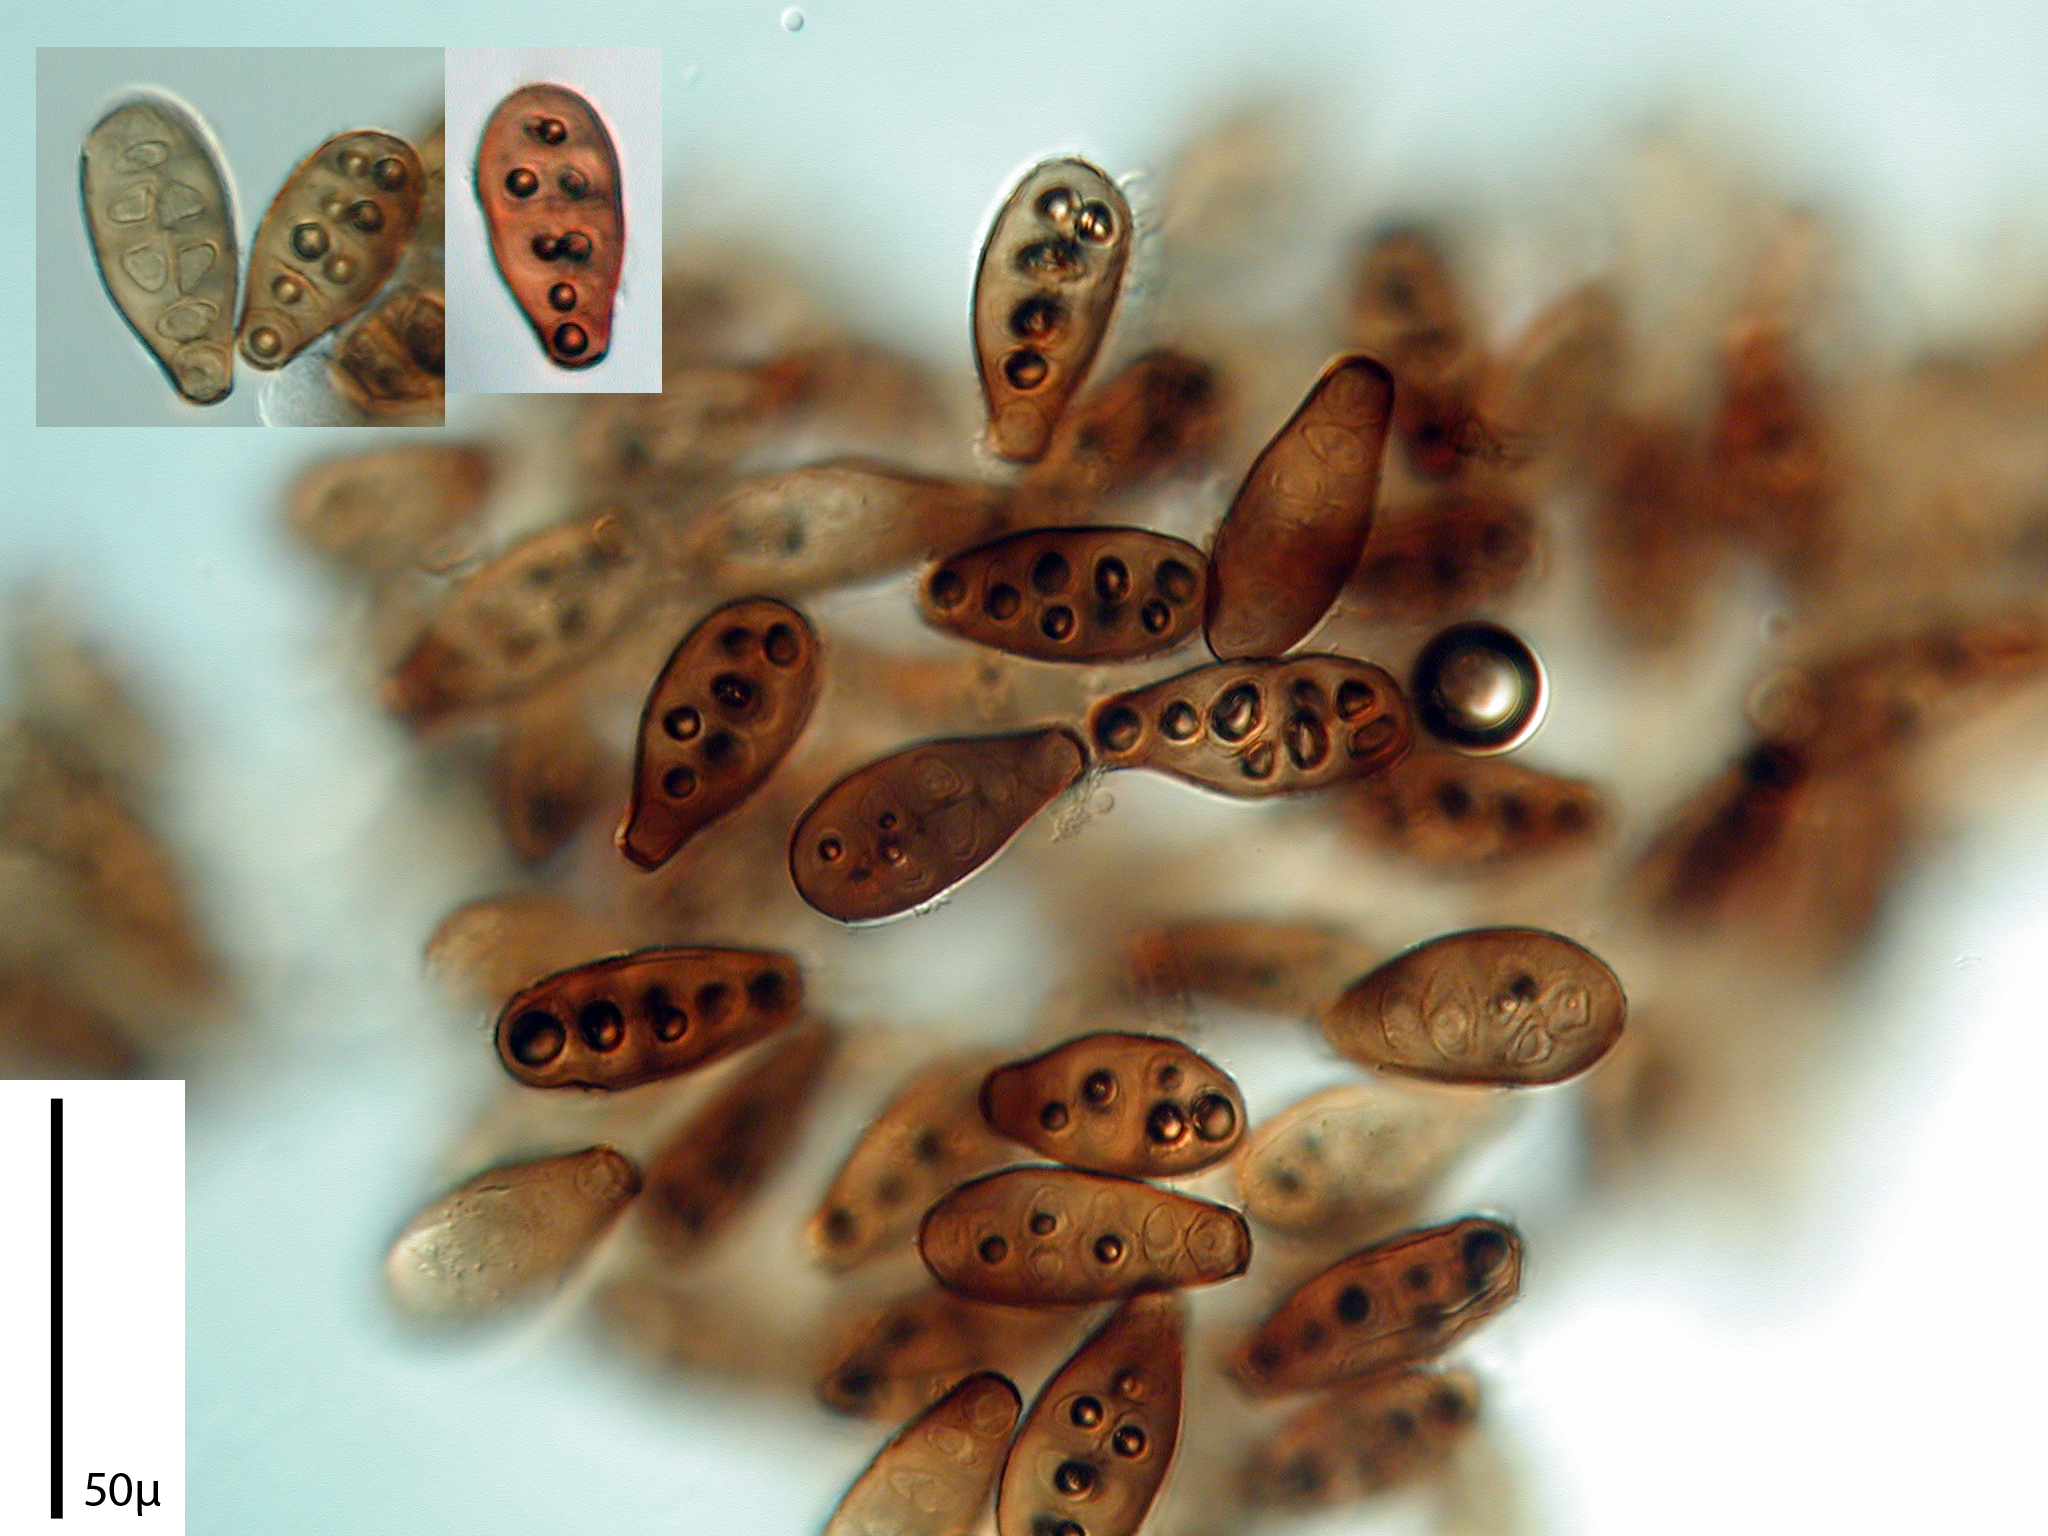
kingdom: Fungi
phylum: Ascomycota
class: Sordariomycetes
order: Diaporthales
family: Melanconidaceae
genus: Prosthecium
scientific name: Prosthecium pyriforme
